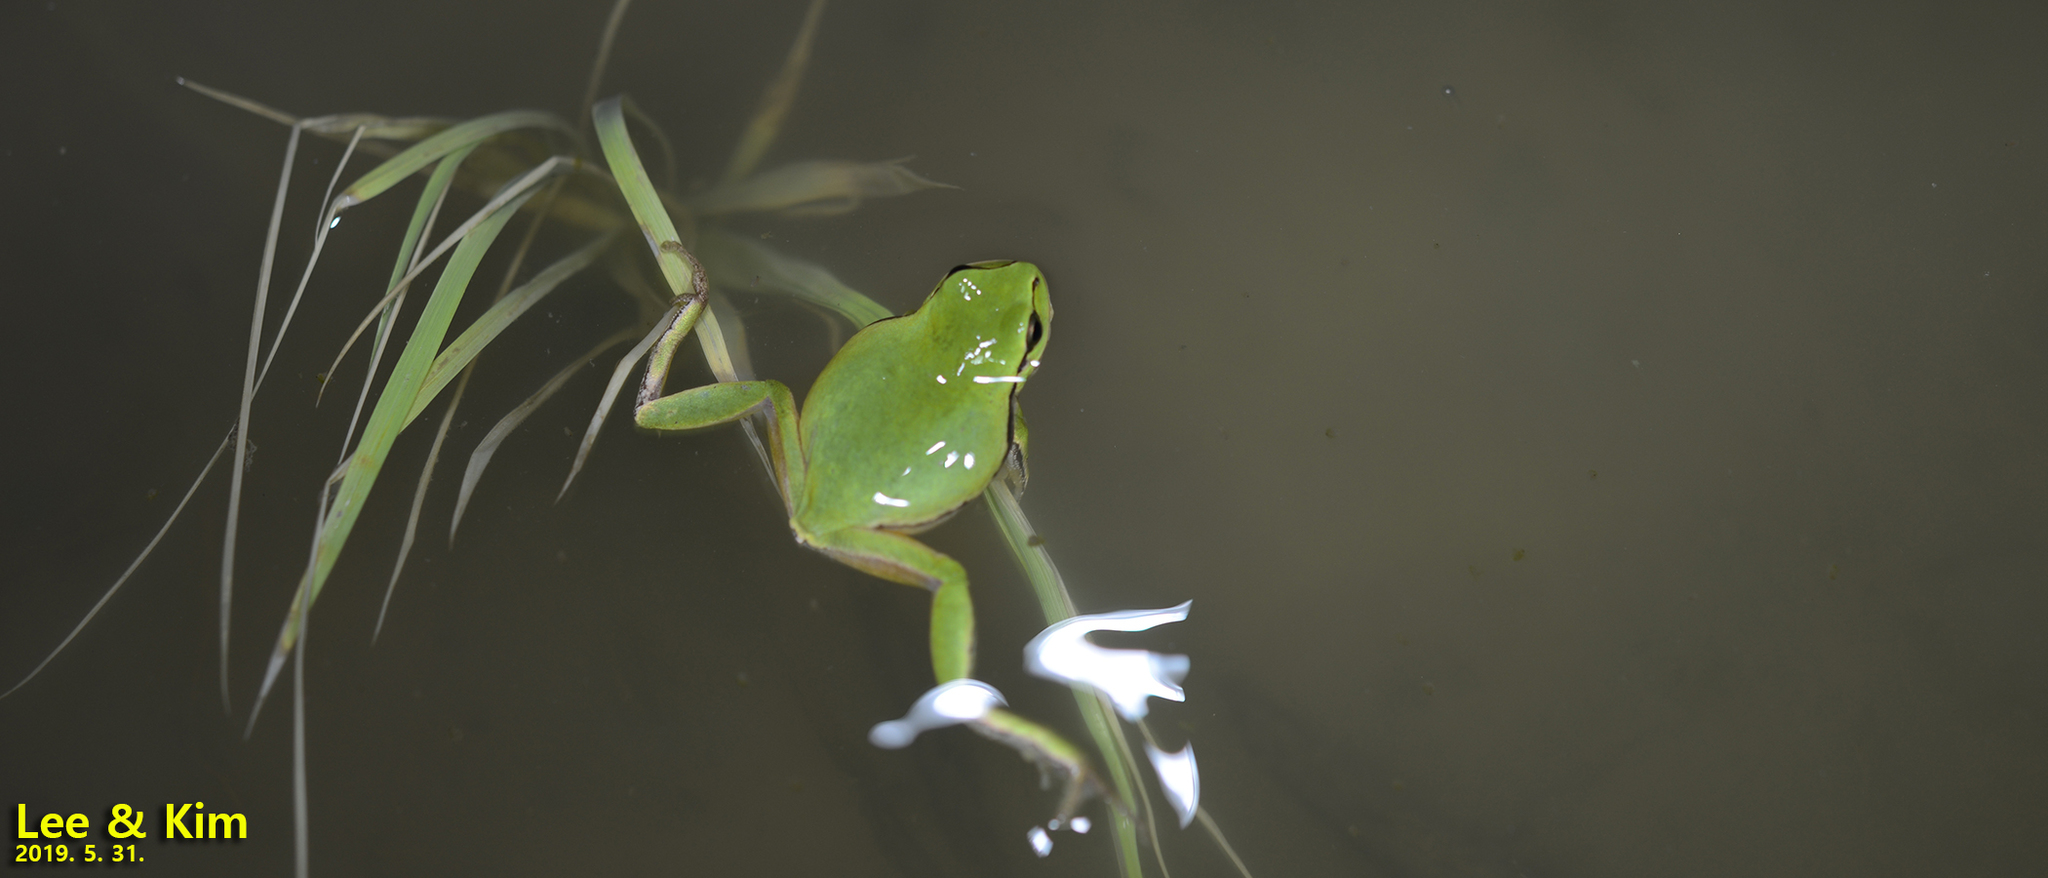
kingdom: Animalia
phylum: Chordata
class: Amphibia
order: Anura
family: Hylidae
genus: Dryophytes
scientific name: Dryophytes immaculatus
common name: North china treefrog
